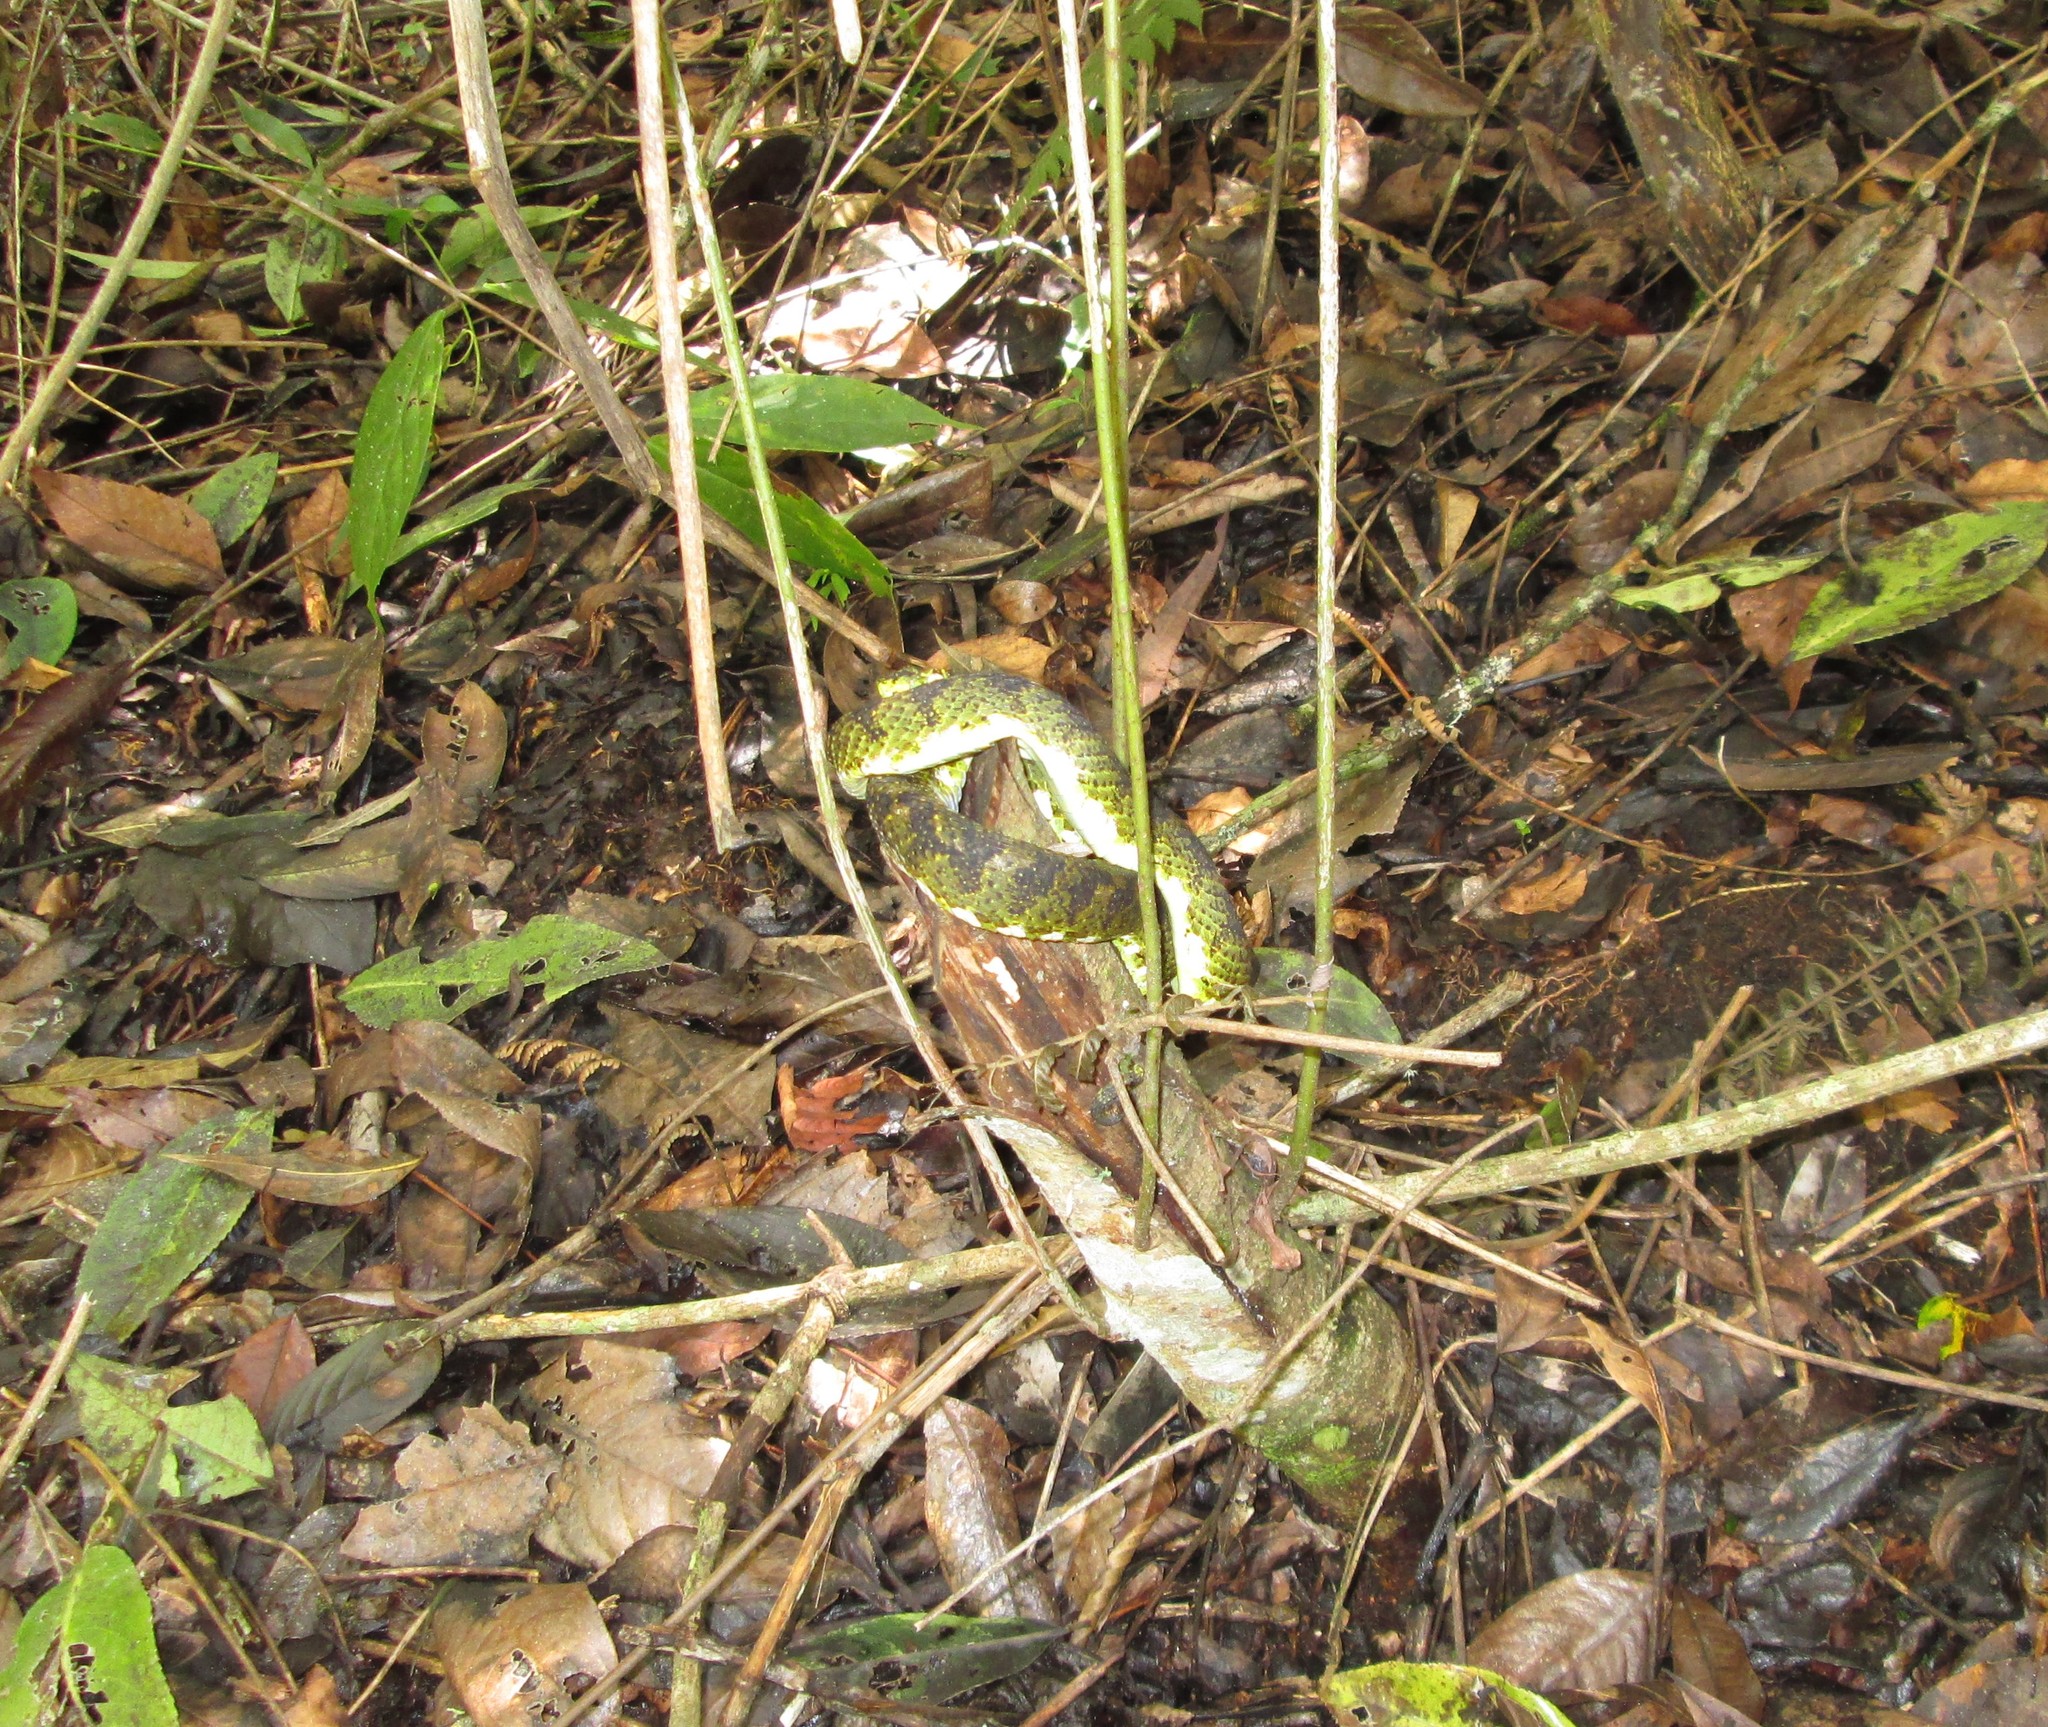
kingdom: Animalia
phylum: Chordata
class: Squamata
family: Viperidae
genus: Bothriechis
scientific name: Bothriechis schlegelii
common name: Eyelash viper
